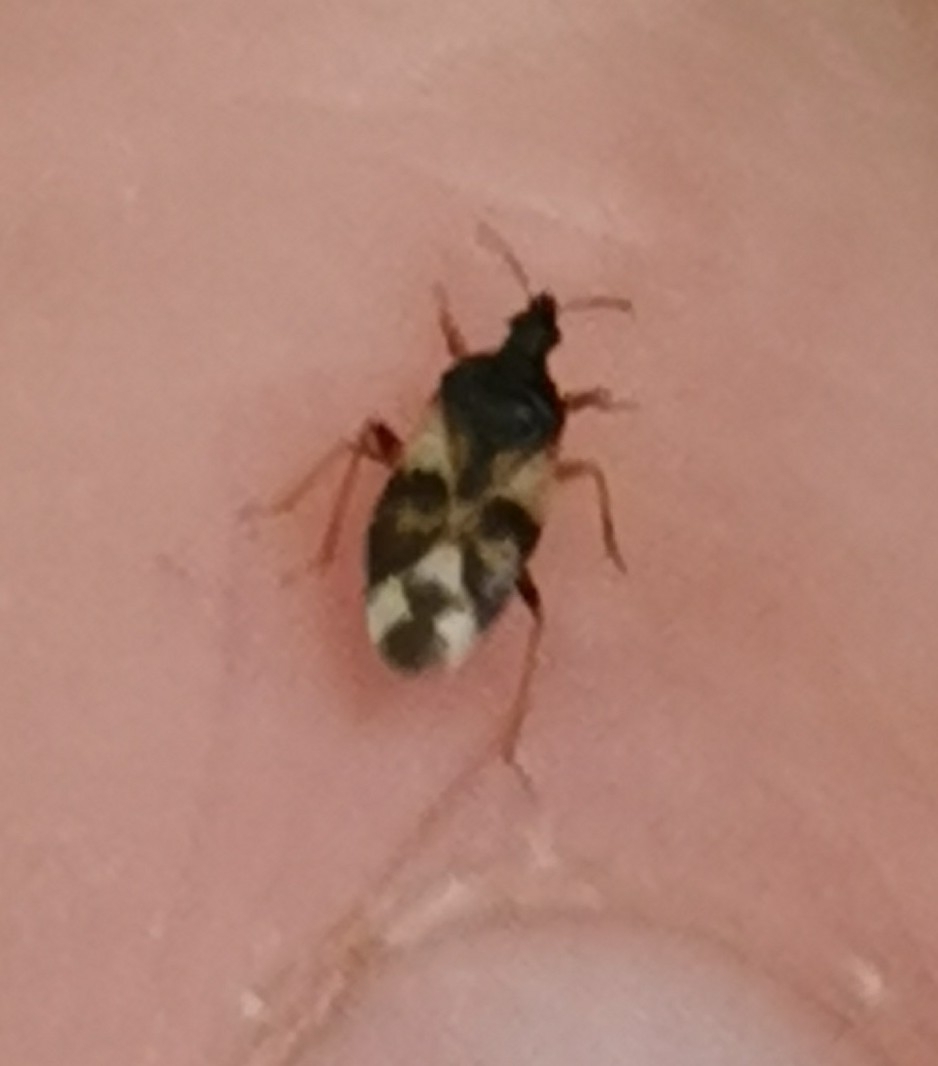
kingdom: Animalia
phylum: Arthropoda
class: Insecta
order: Hemiptera
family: Anthocoridae
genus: Anthocoris
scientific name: Anthocoris nemorum
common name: Minute pirate bug
